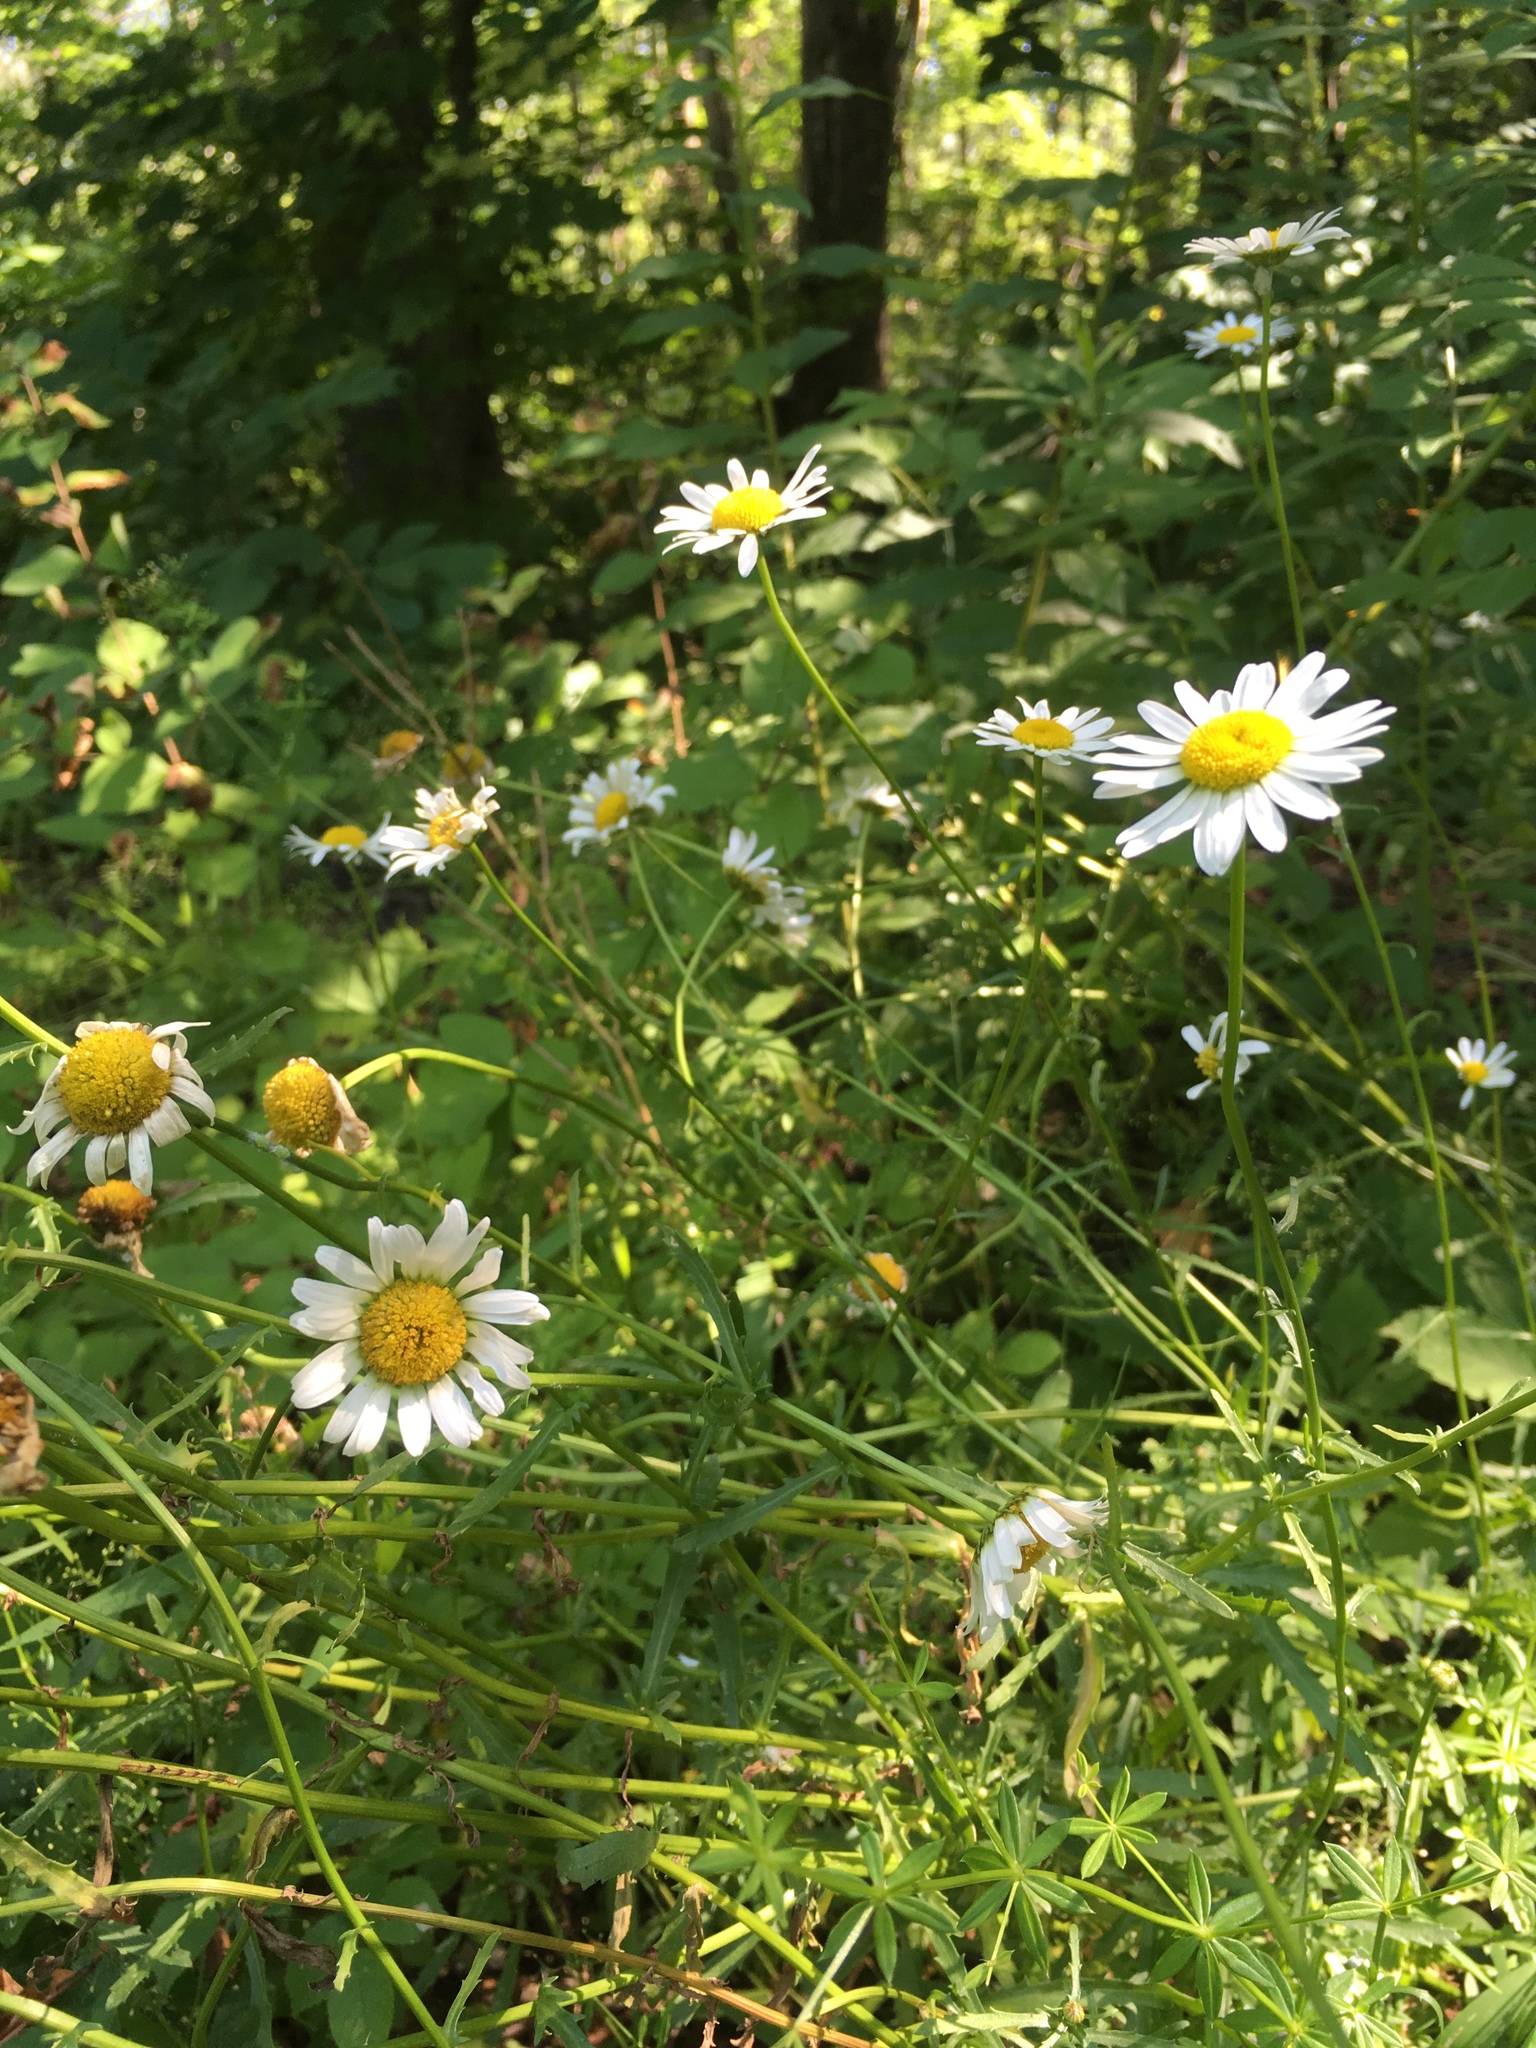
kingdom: Plantae
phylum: Tracheophyta
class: Magnoliopsida
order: Asterales
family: Asteraceae
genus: Leucanthemum
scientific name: Leucanthemum vulgare
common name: Oxeye daisy
